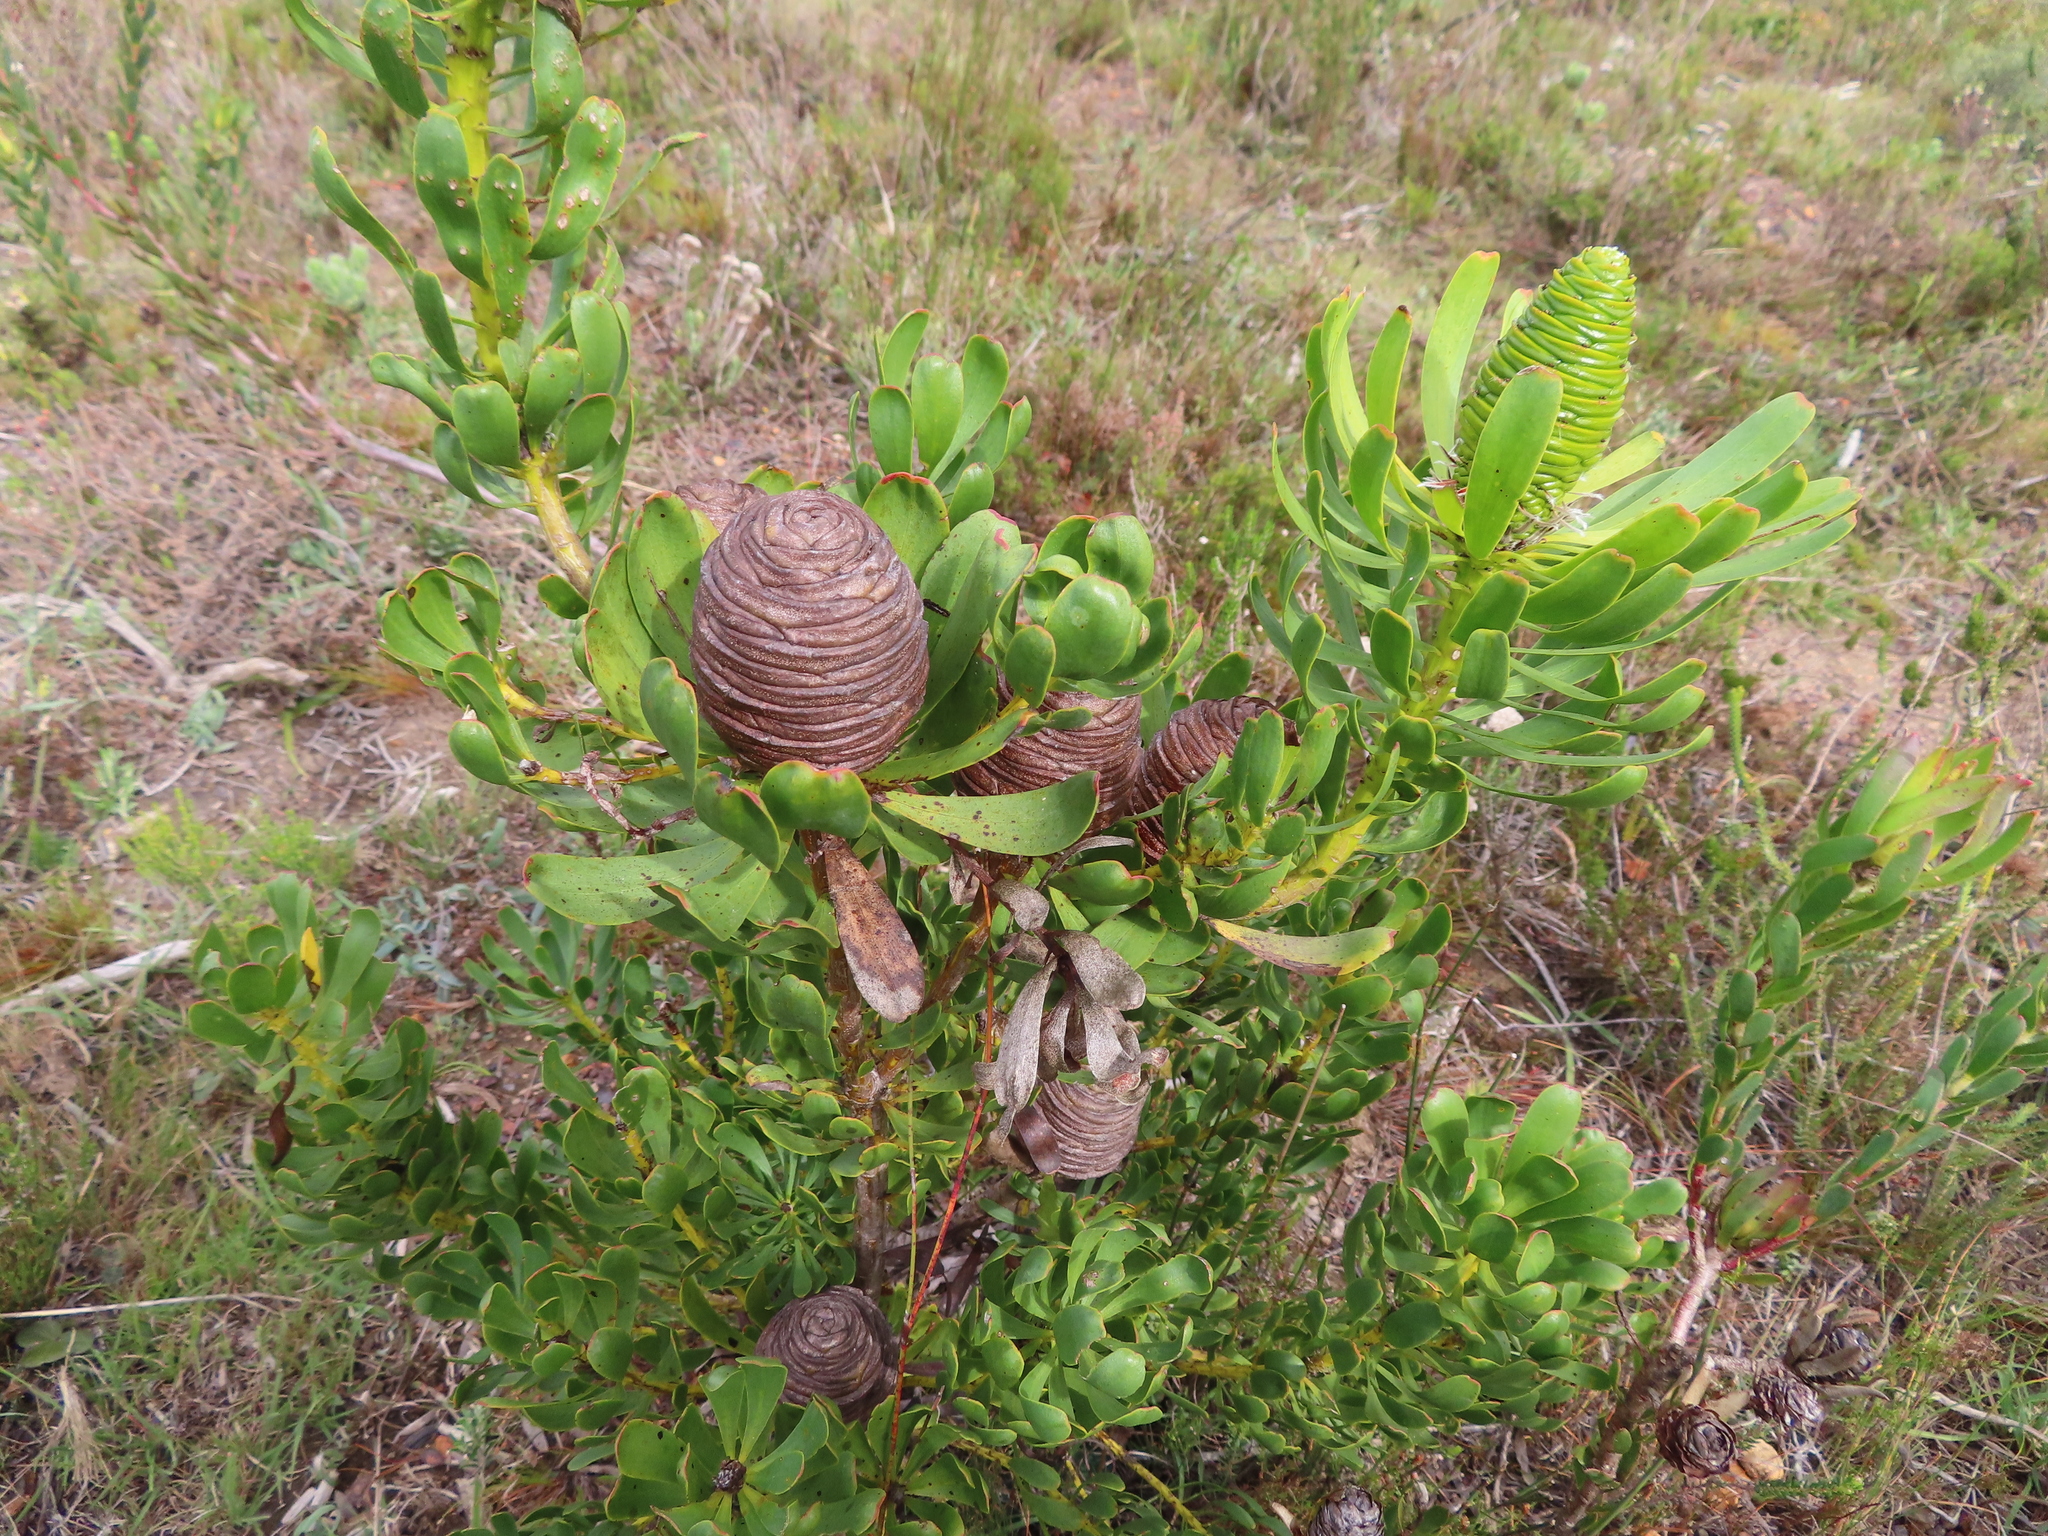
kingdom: Plantae
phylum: Tracheophyta
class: Magnoliopsida
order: Proteales
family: Proteaceae
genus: Leucadendron
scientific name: Leucadendron platyspermum
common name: Plate-seed conebush
